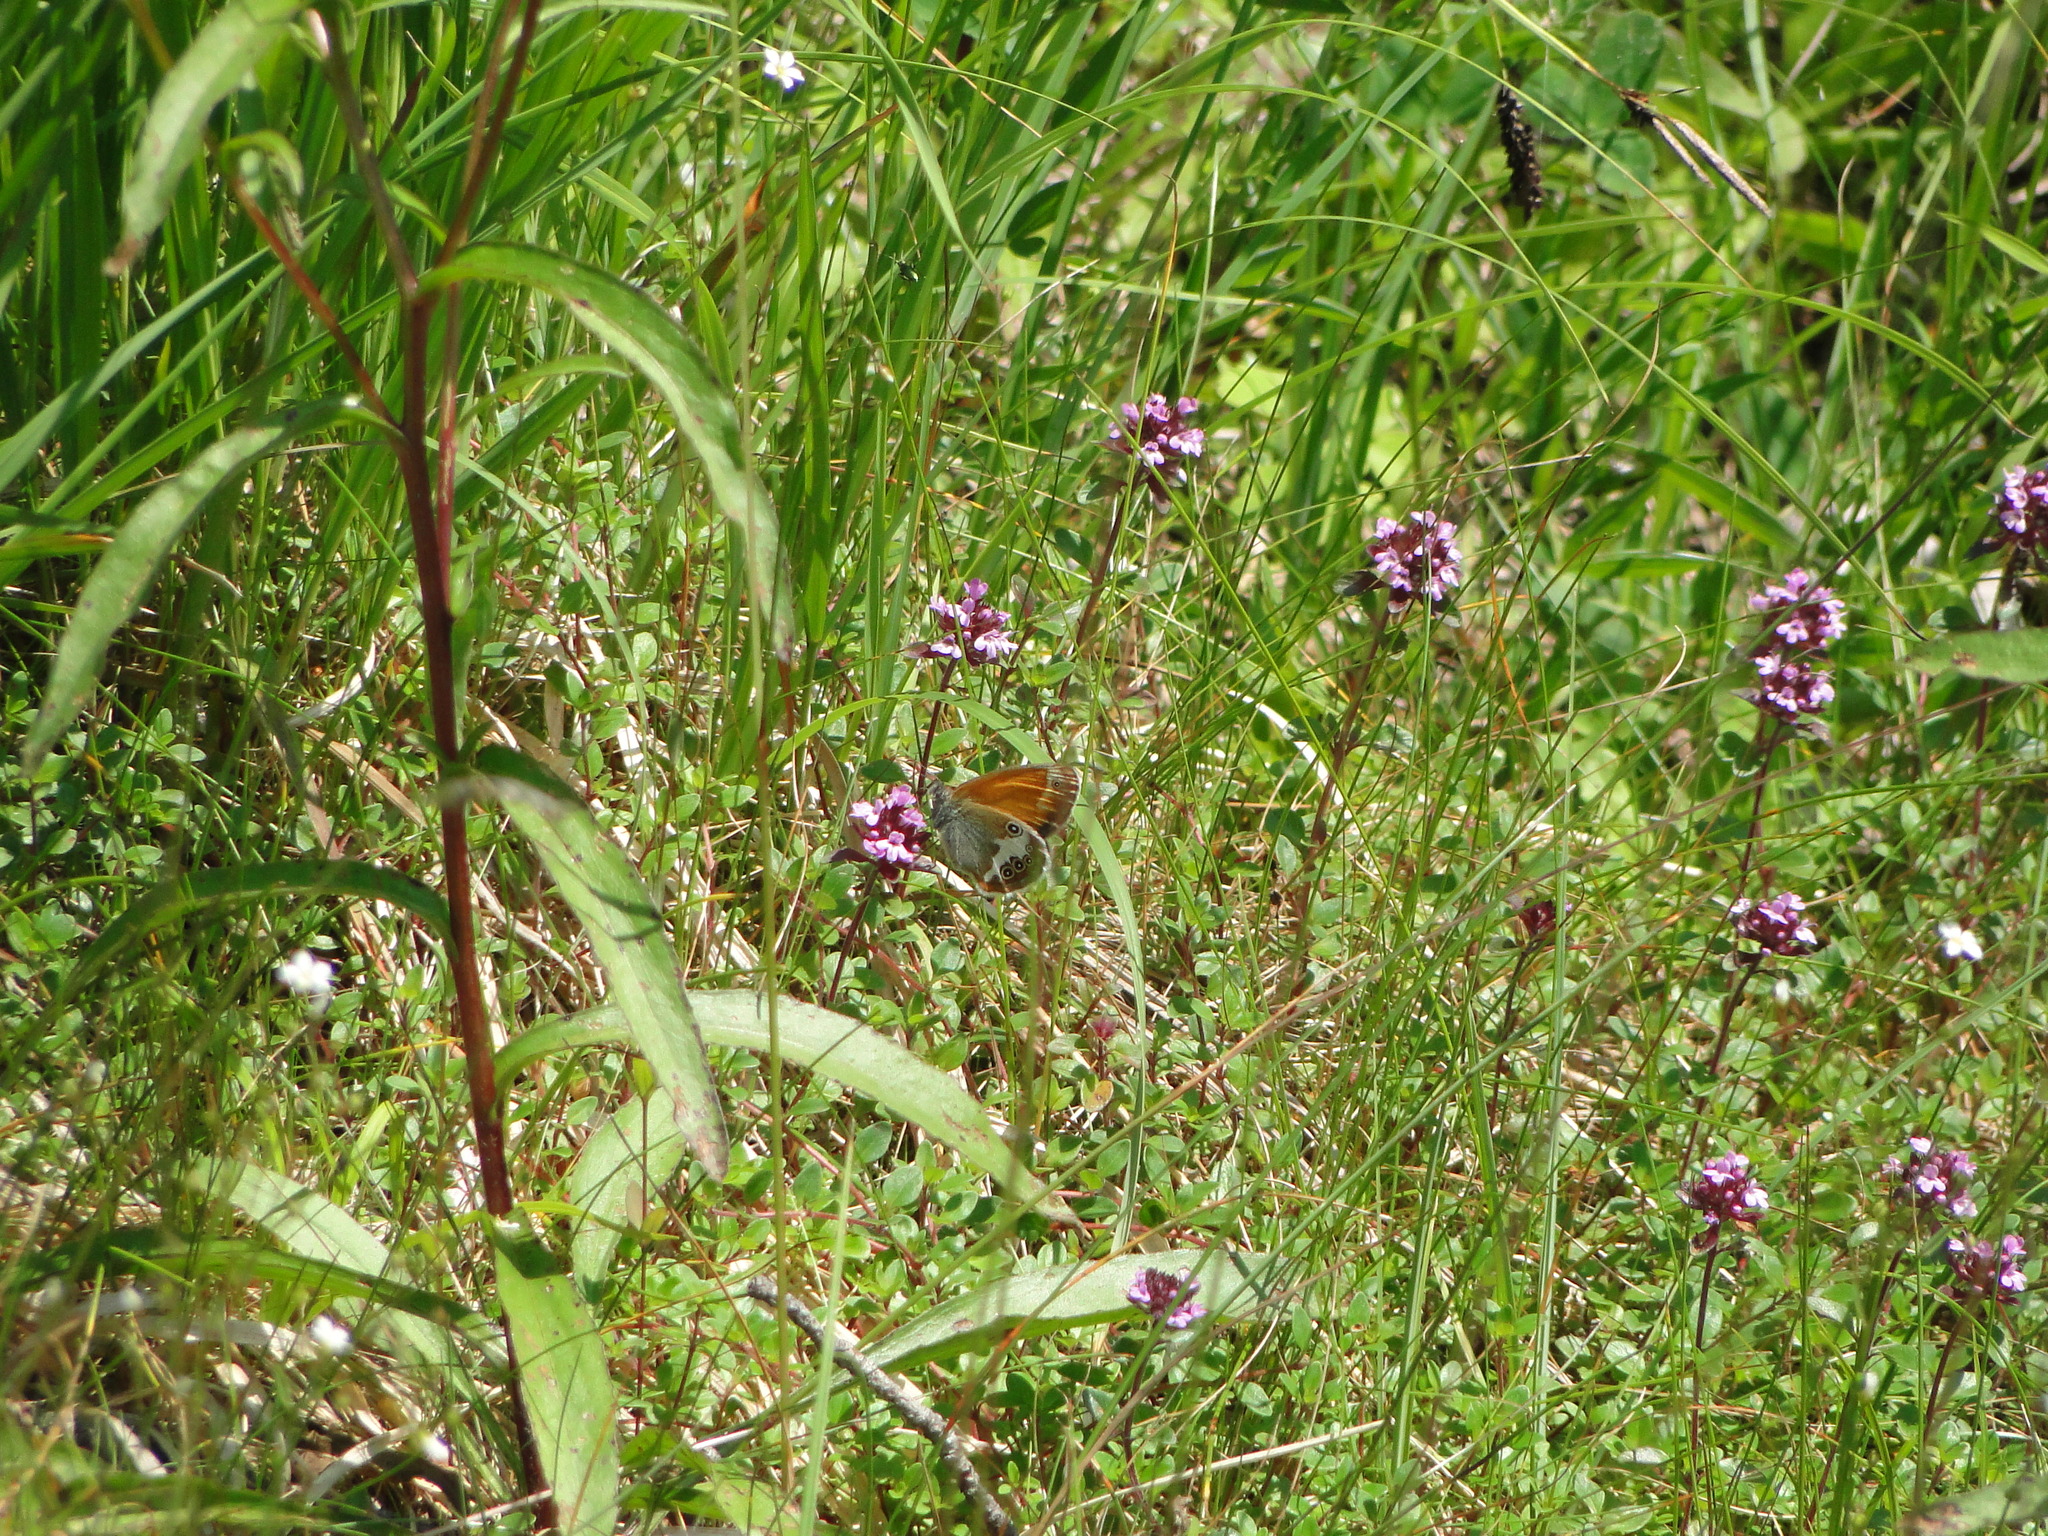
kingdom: Animalia
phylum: Arthropoda
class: Insecta
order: Lepidoptera
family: Nymphalidae
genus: Coenonympha
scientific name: Coenonympha arcania
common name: Pearly heath
